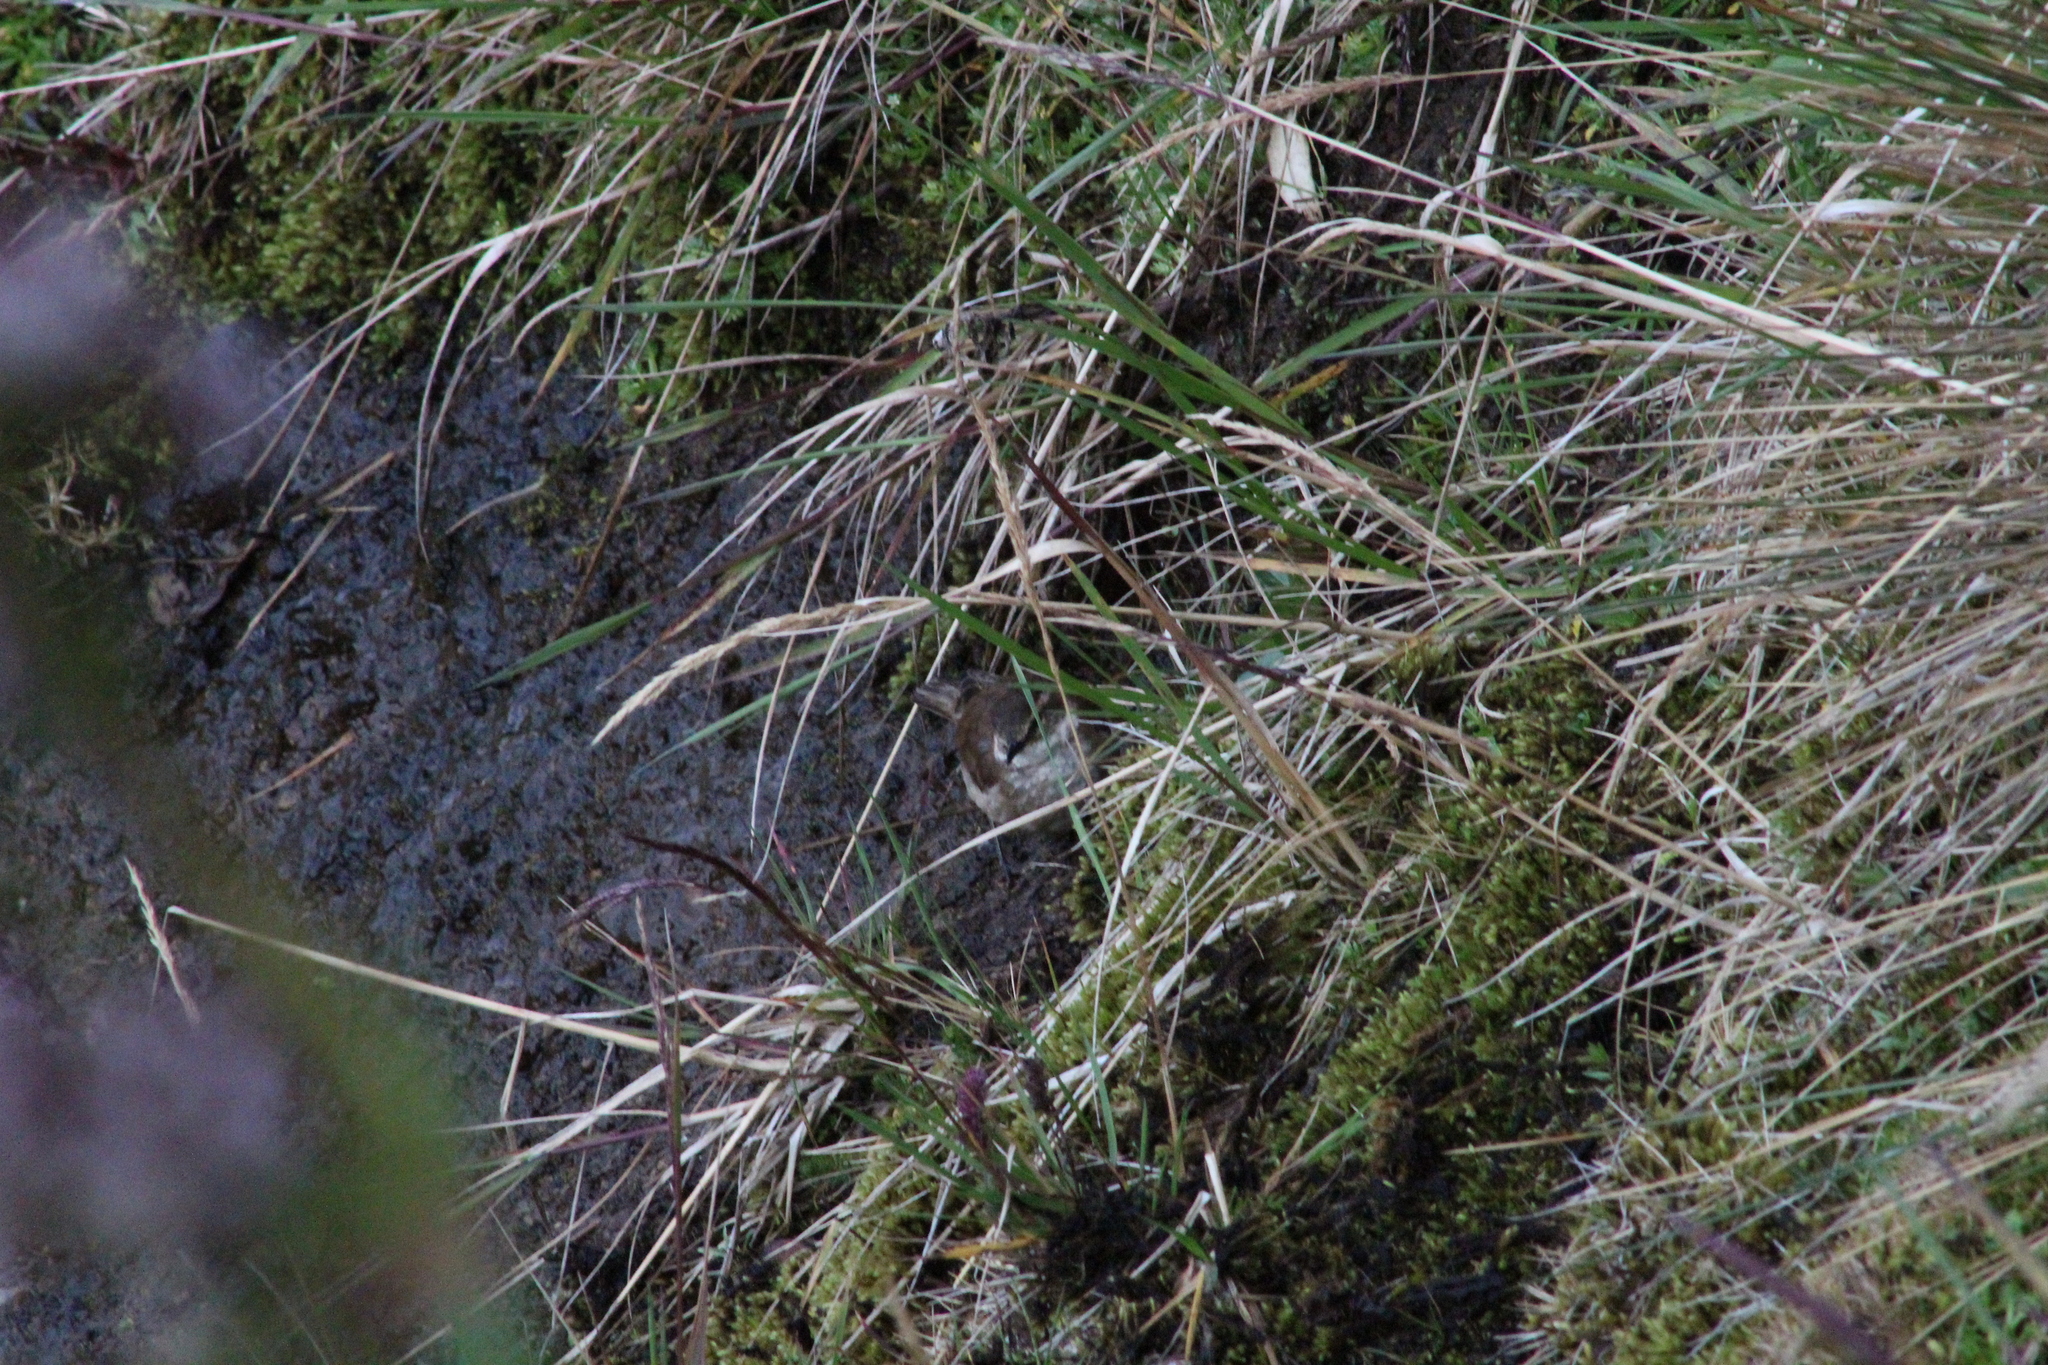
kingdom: Animalia
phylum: Chordata
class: Aves
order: Passeriformes
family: Furnariidae
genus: Cinclodes
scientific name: Cinclodes albidiventris
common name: Chestnut-winged cinclodes
